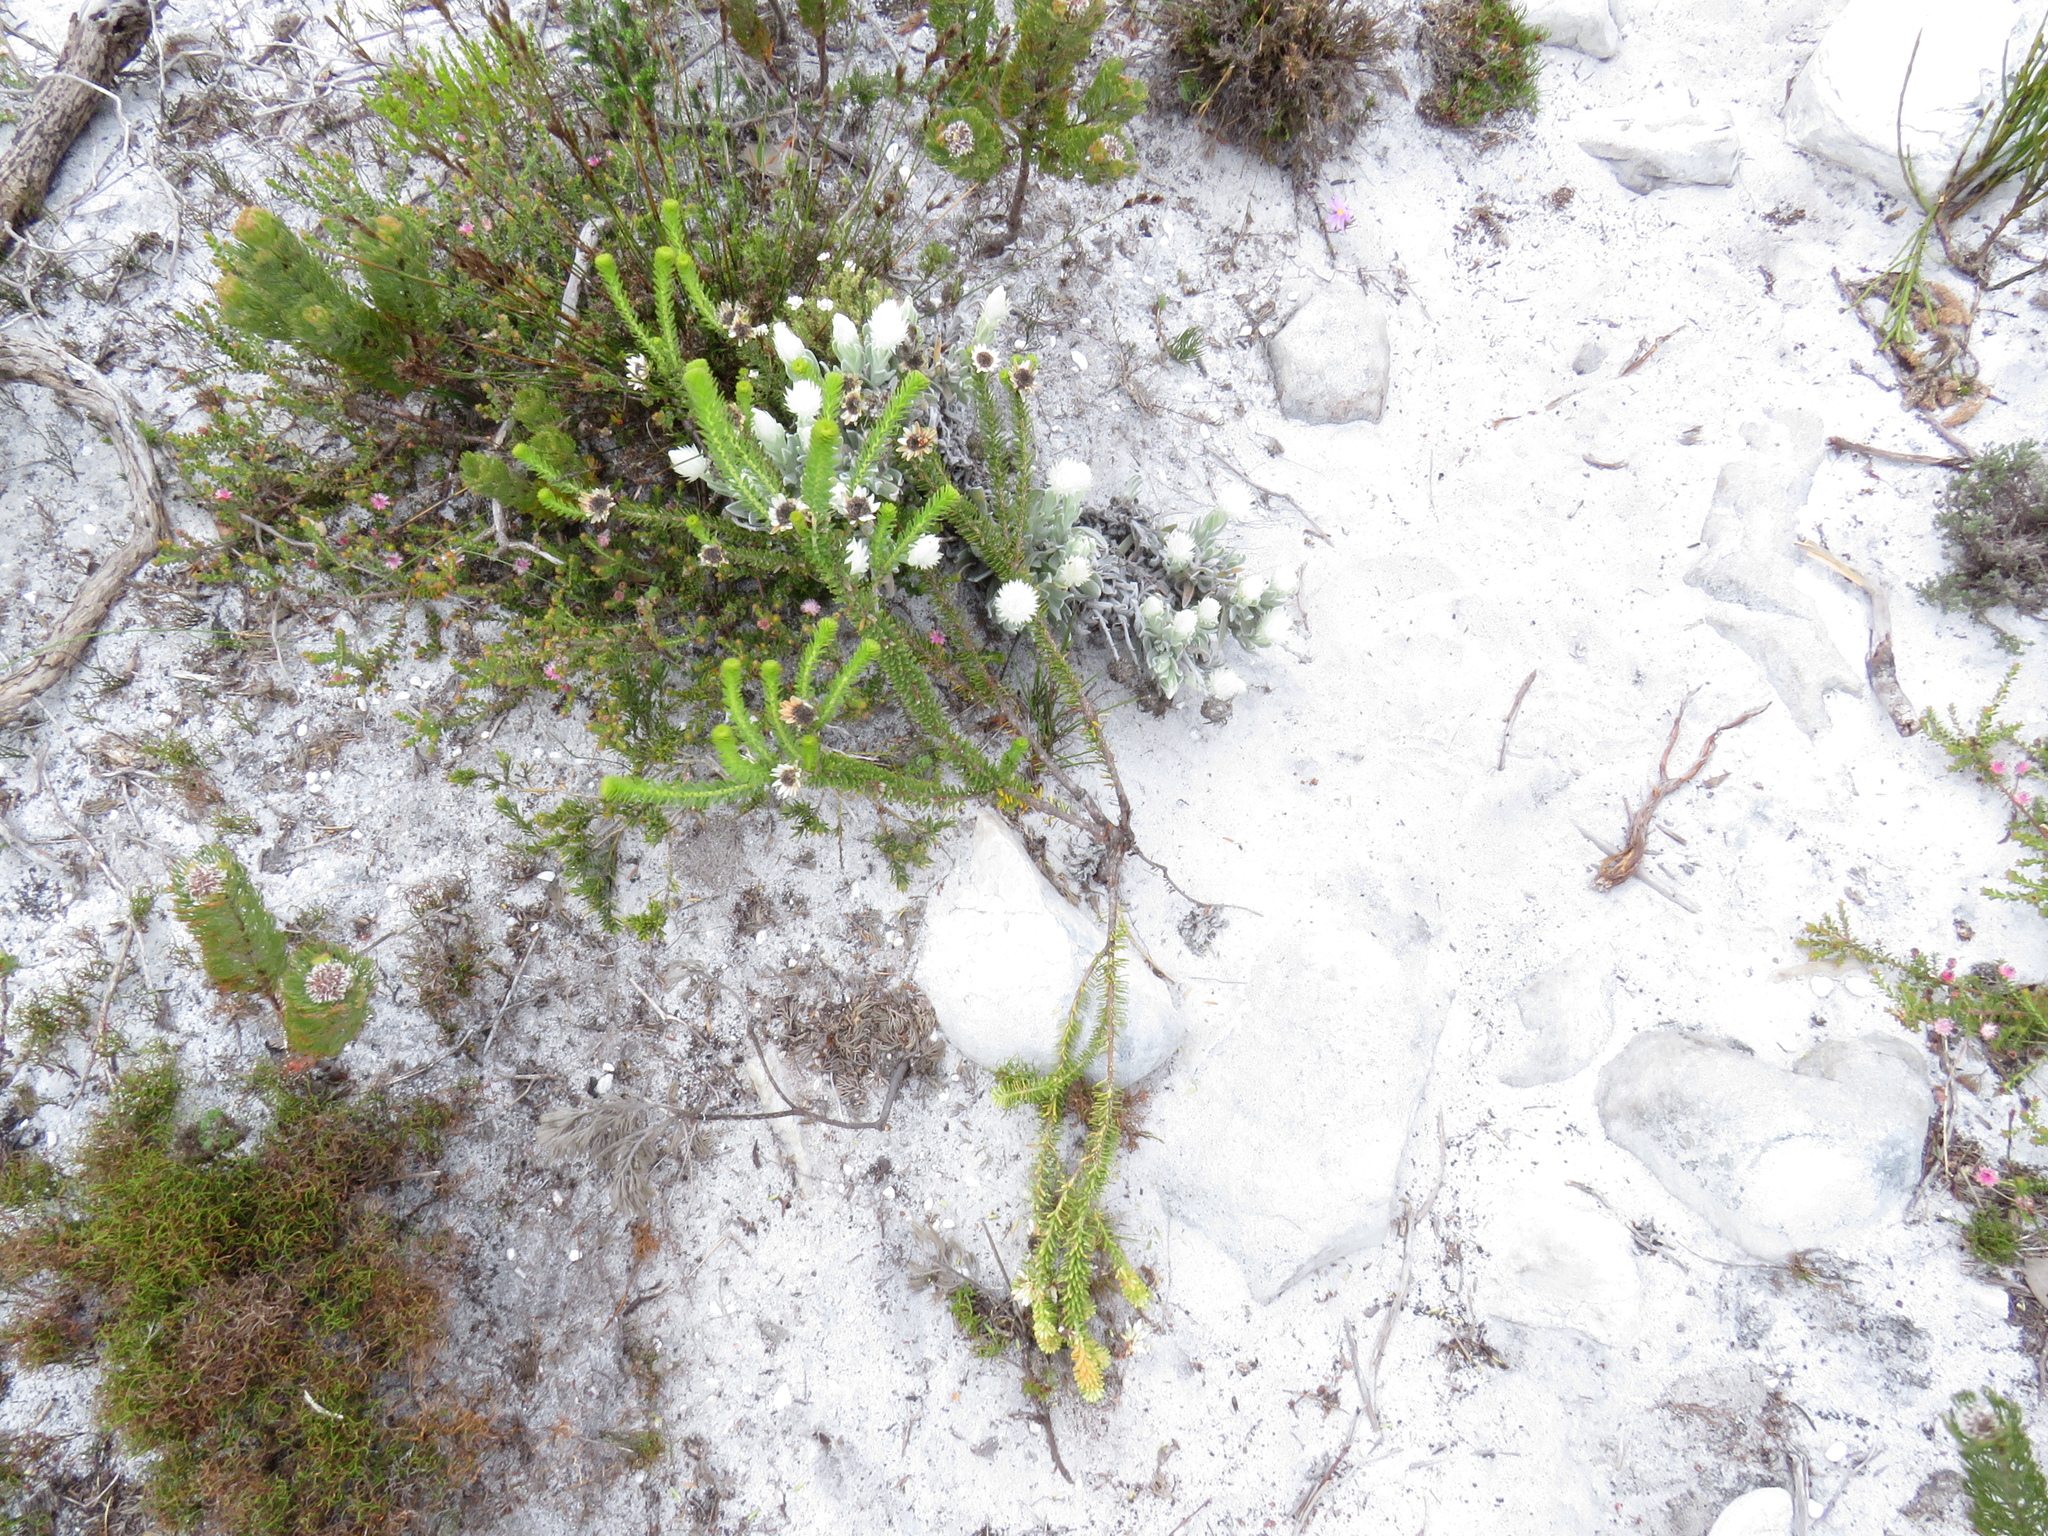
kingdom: Plantae
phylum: Tracheophyta
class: Magnoliopsida
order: Bruniales
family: Bruniaceae
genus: Staavia
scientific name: Staavia dodii
